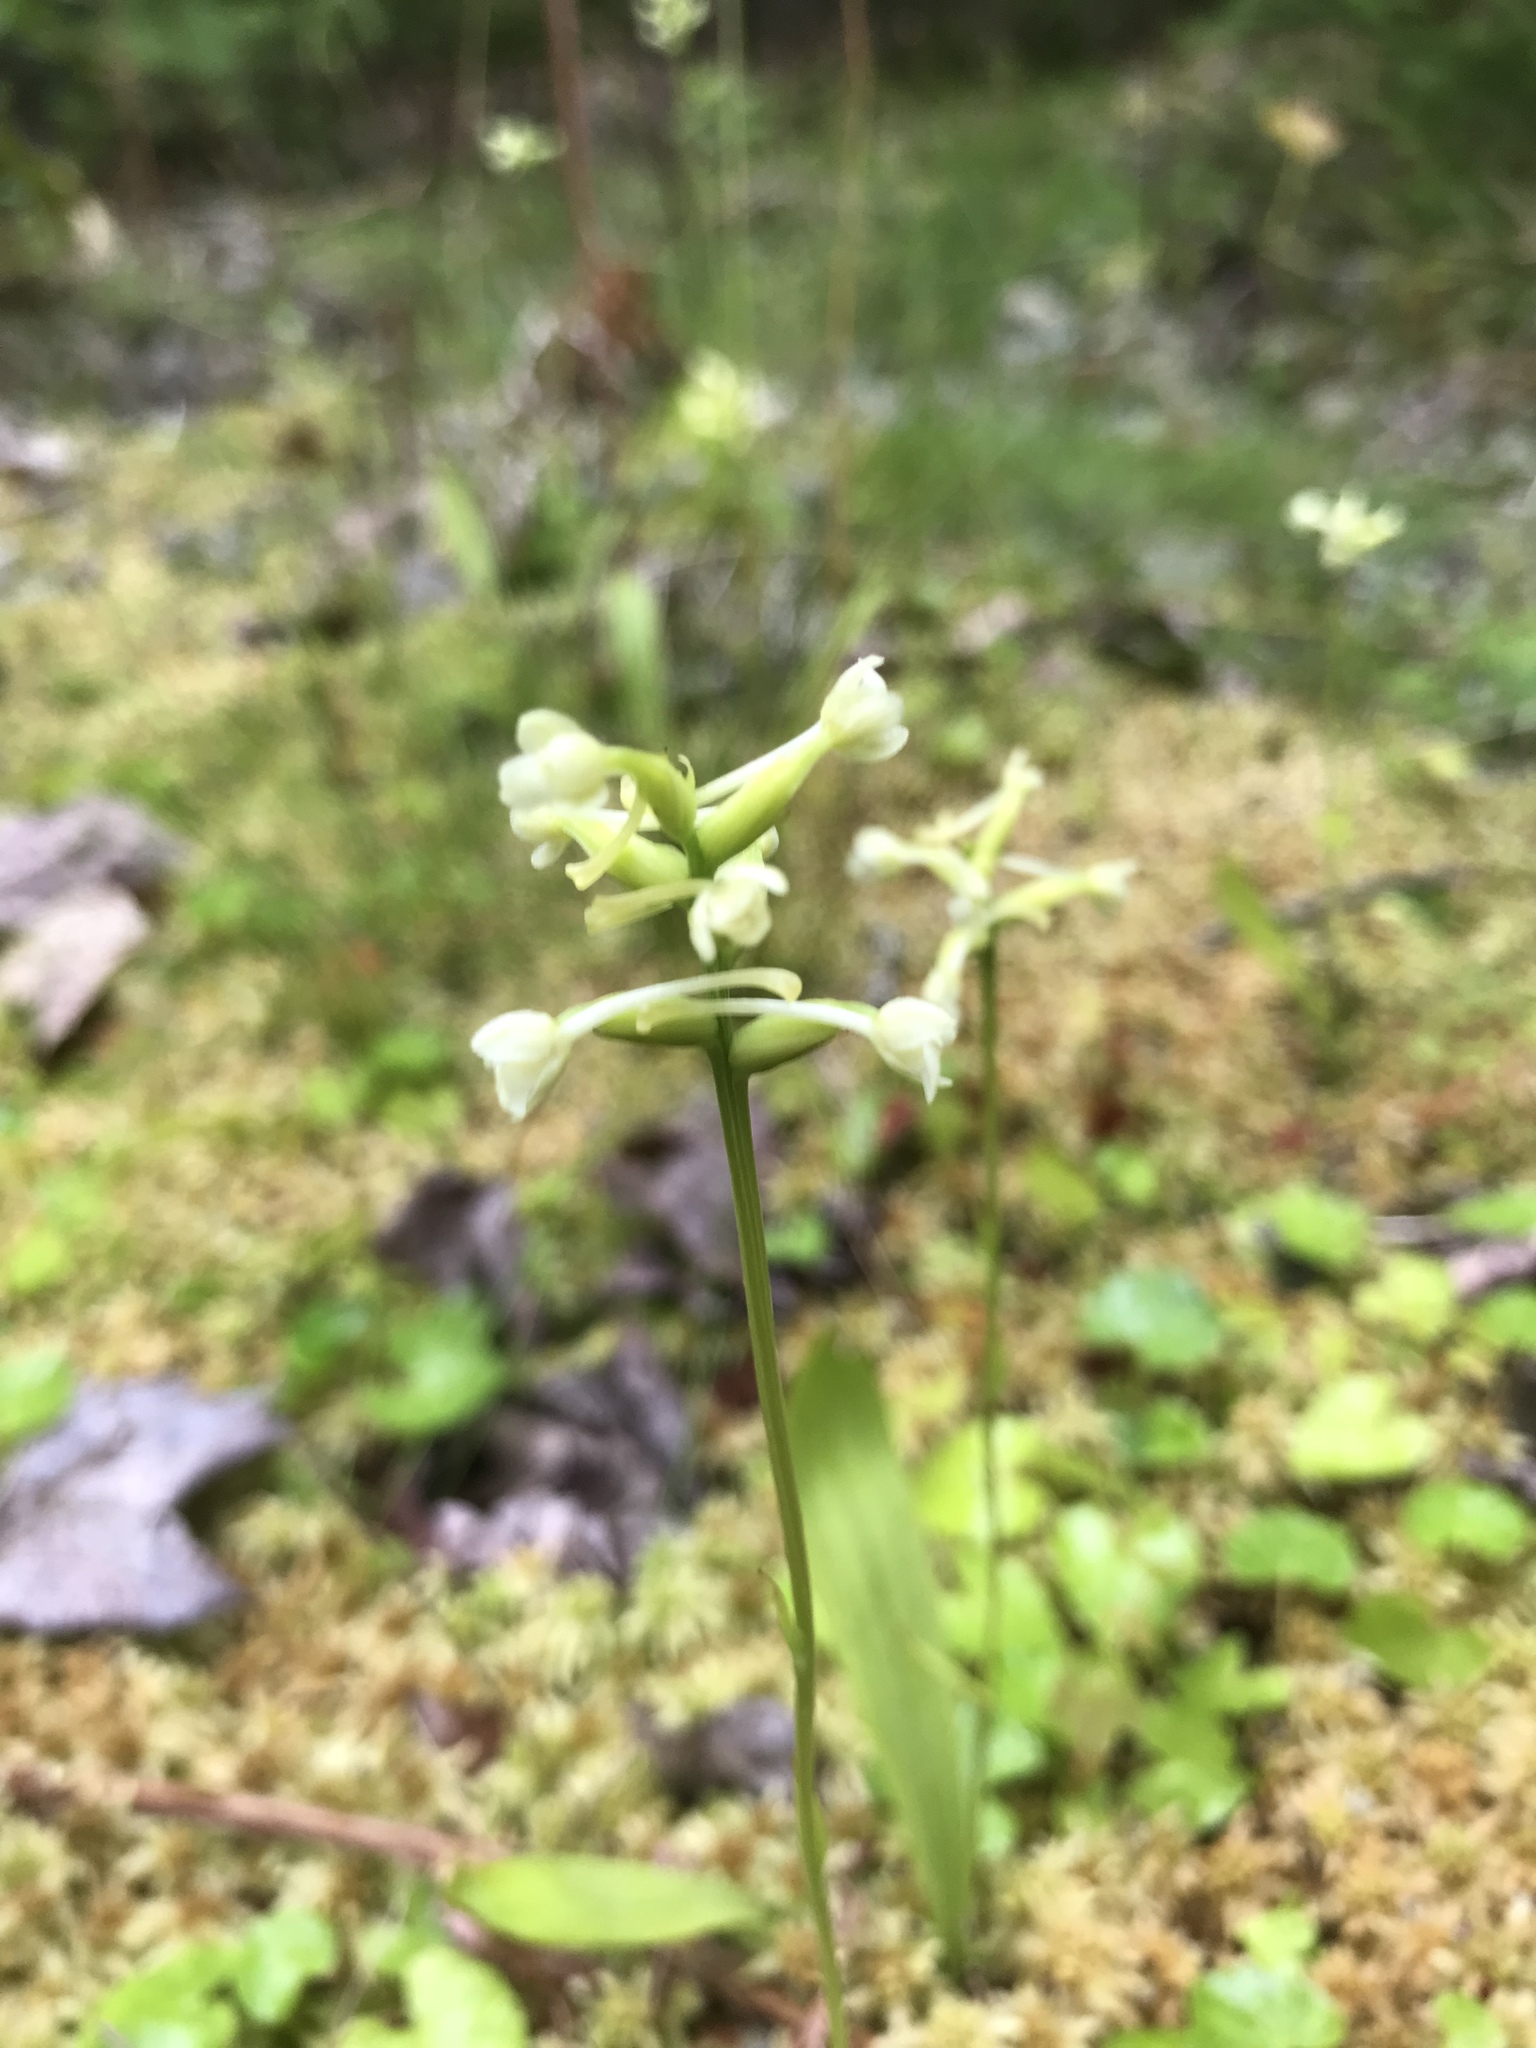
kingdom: Plantae
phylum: Tracheophyta
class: Liliopsida
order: Asparagales
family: Orchidaceae
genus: Platanthera
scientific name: Platanthera clavellata
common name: Club-spur orchid
